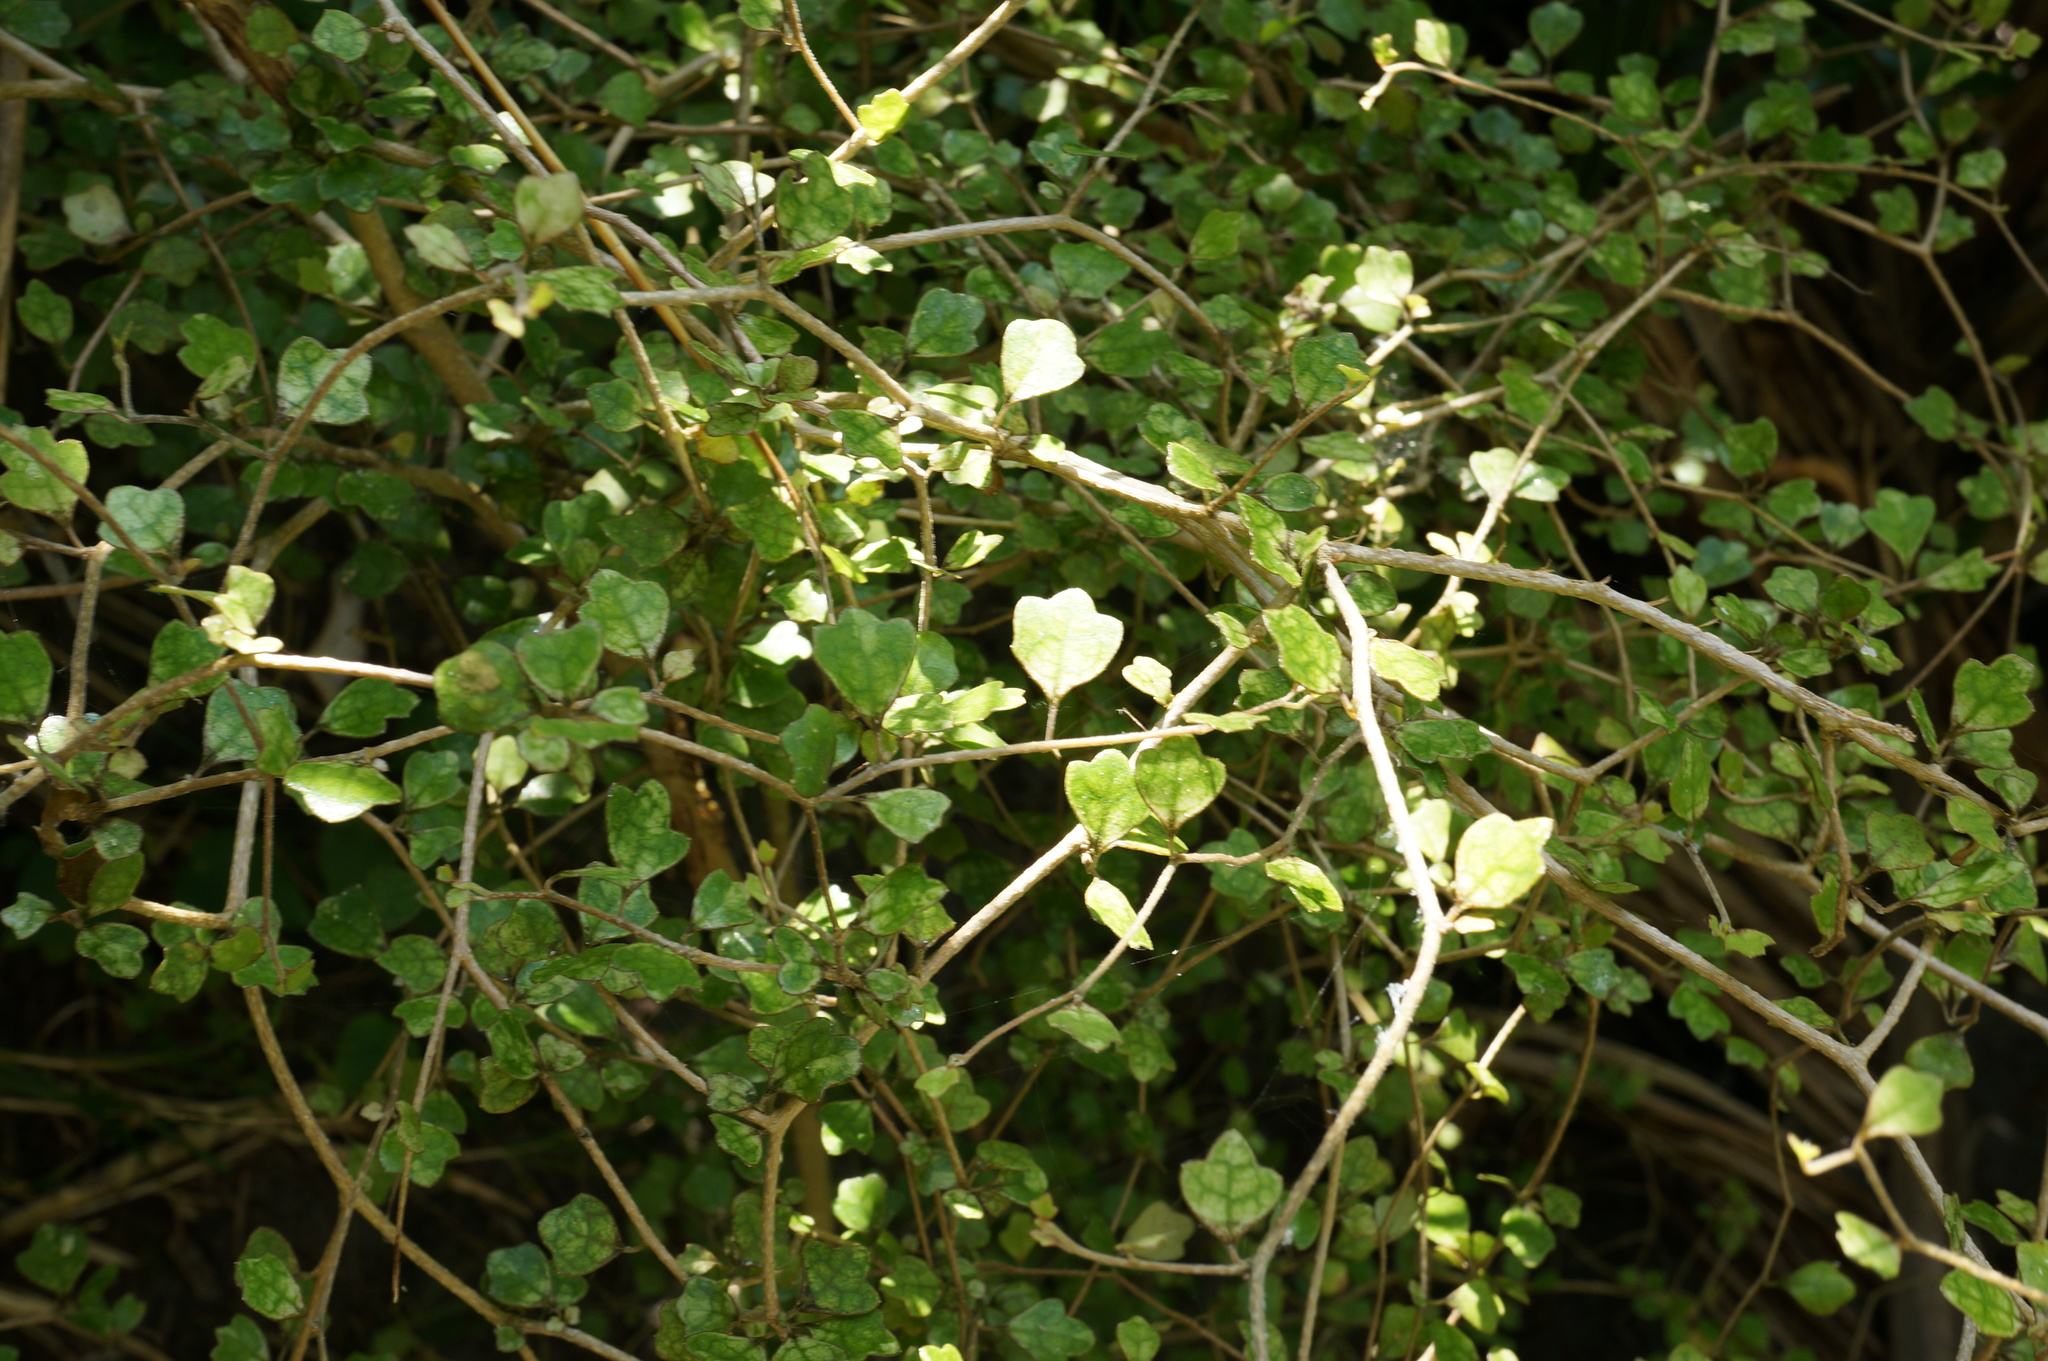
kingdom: Plantae
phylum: Tracheophyta
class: Magnoliopsida
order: Apiales
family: Pennantiaceae
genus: Pennantia
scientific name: Pennantia corymbosa
